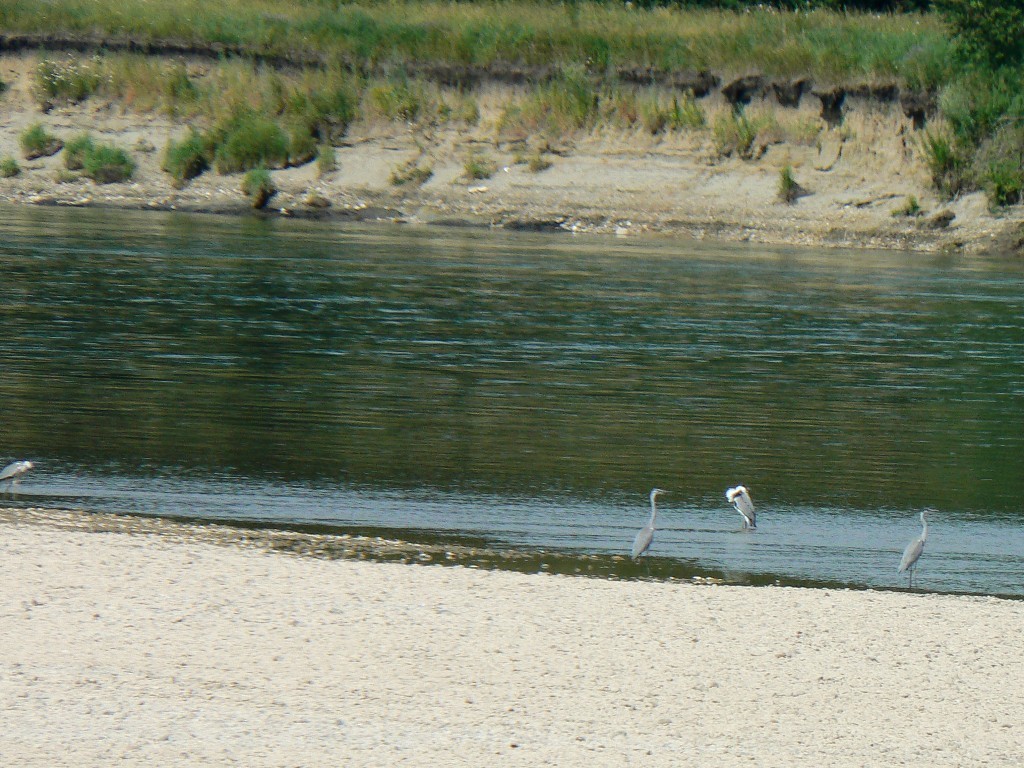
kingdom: Animalia
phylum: Chordata
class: Aves
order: Pelecaniformes
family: Ardeidae
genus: Ardea
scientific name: Ardea cinerea
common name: Grey heron
